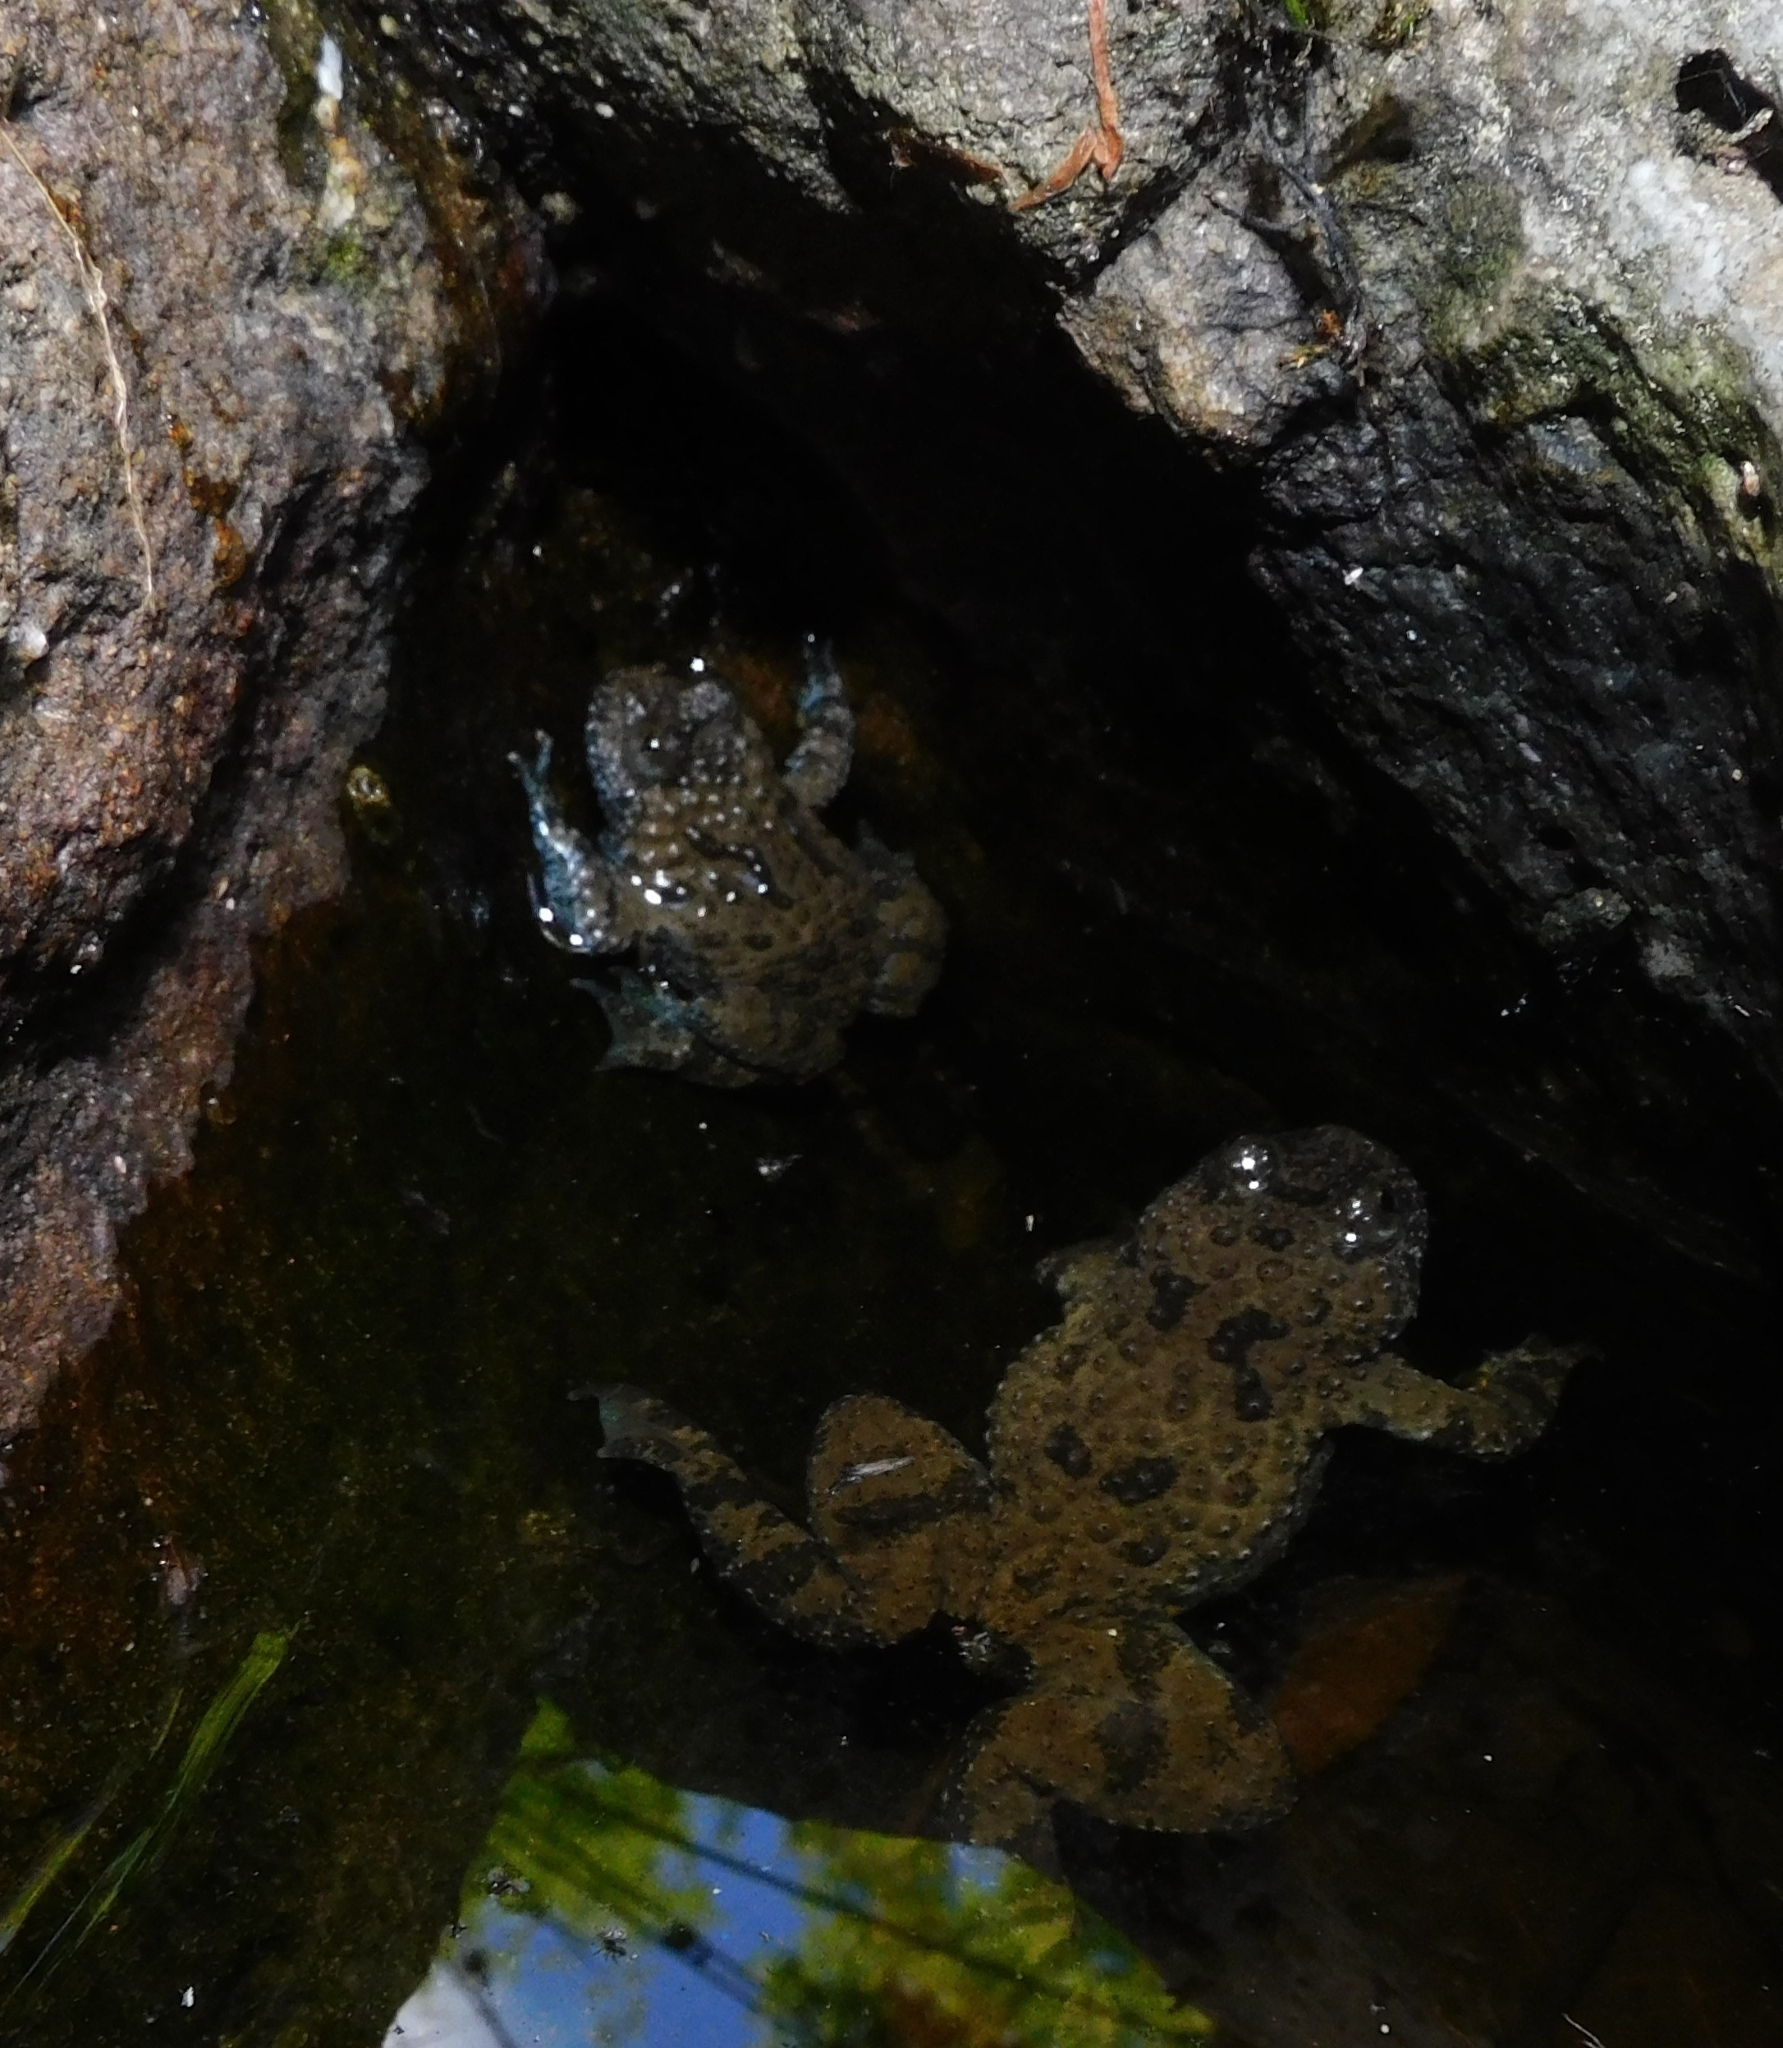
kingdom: Animalia
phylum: Chordata
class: Amphibia
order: Anura
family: Bombinatoridae
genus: Bombina
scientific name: Bombina variegata
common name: Yellow-bellied toad
